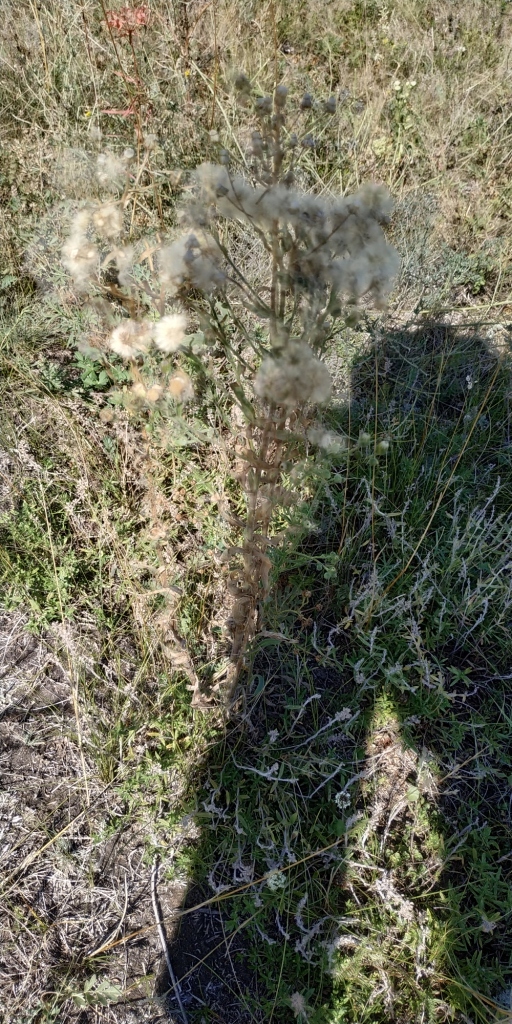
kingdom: Plantae
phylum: Tracheophyta
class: Magnoliopsida
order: Asterales
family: Asteraceae
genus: Erigeron
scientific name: Erigeron acris
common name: Blue fleabane
